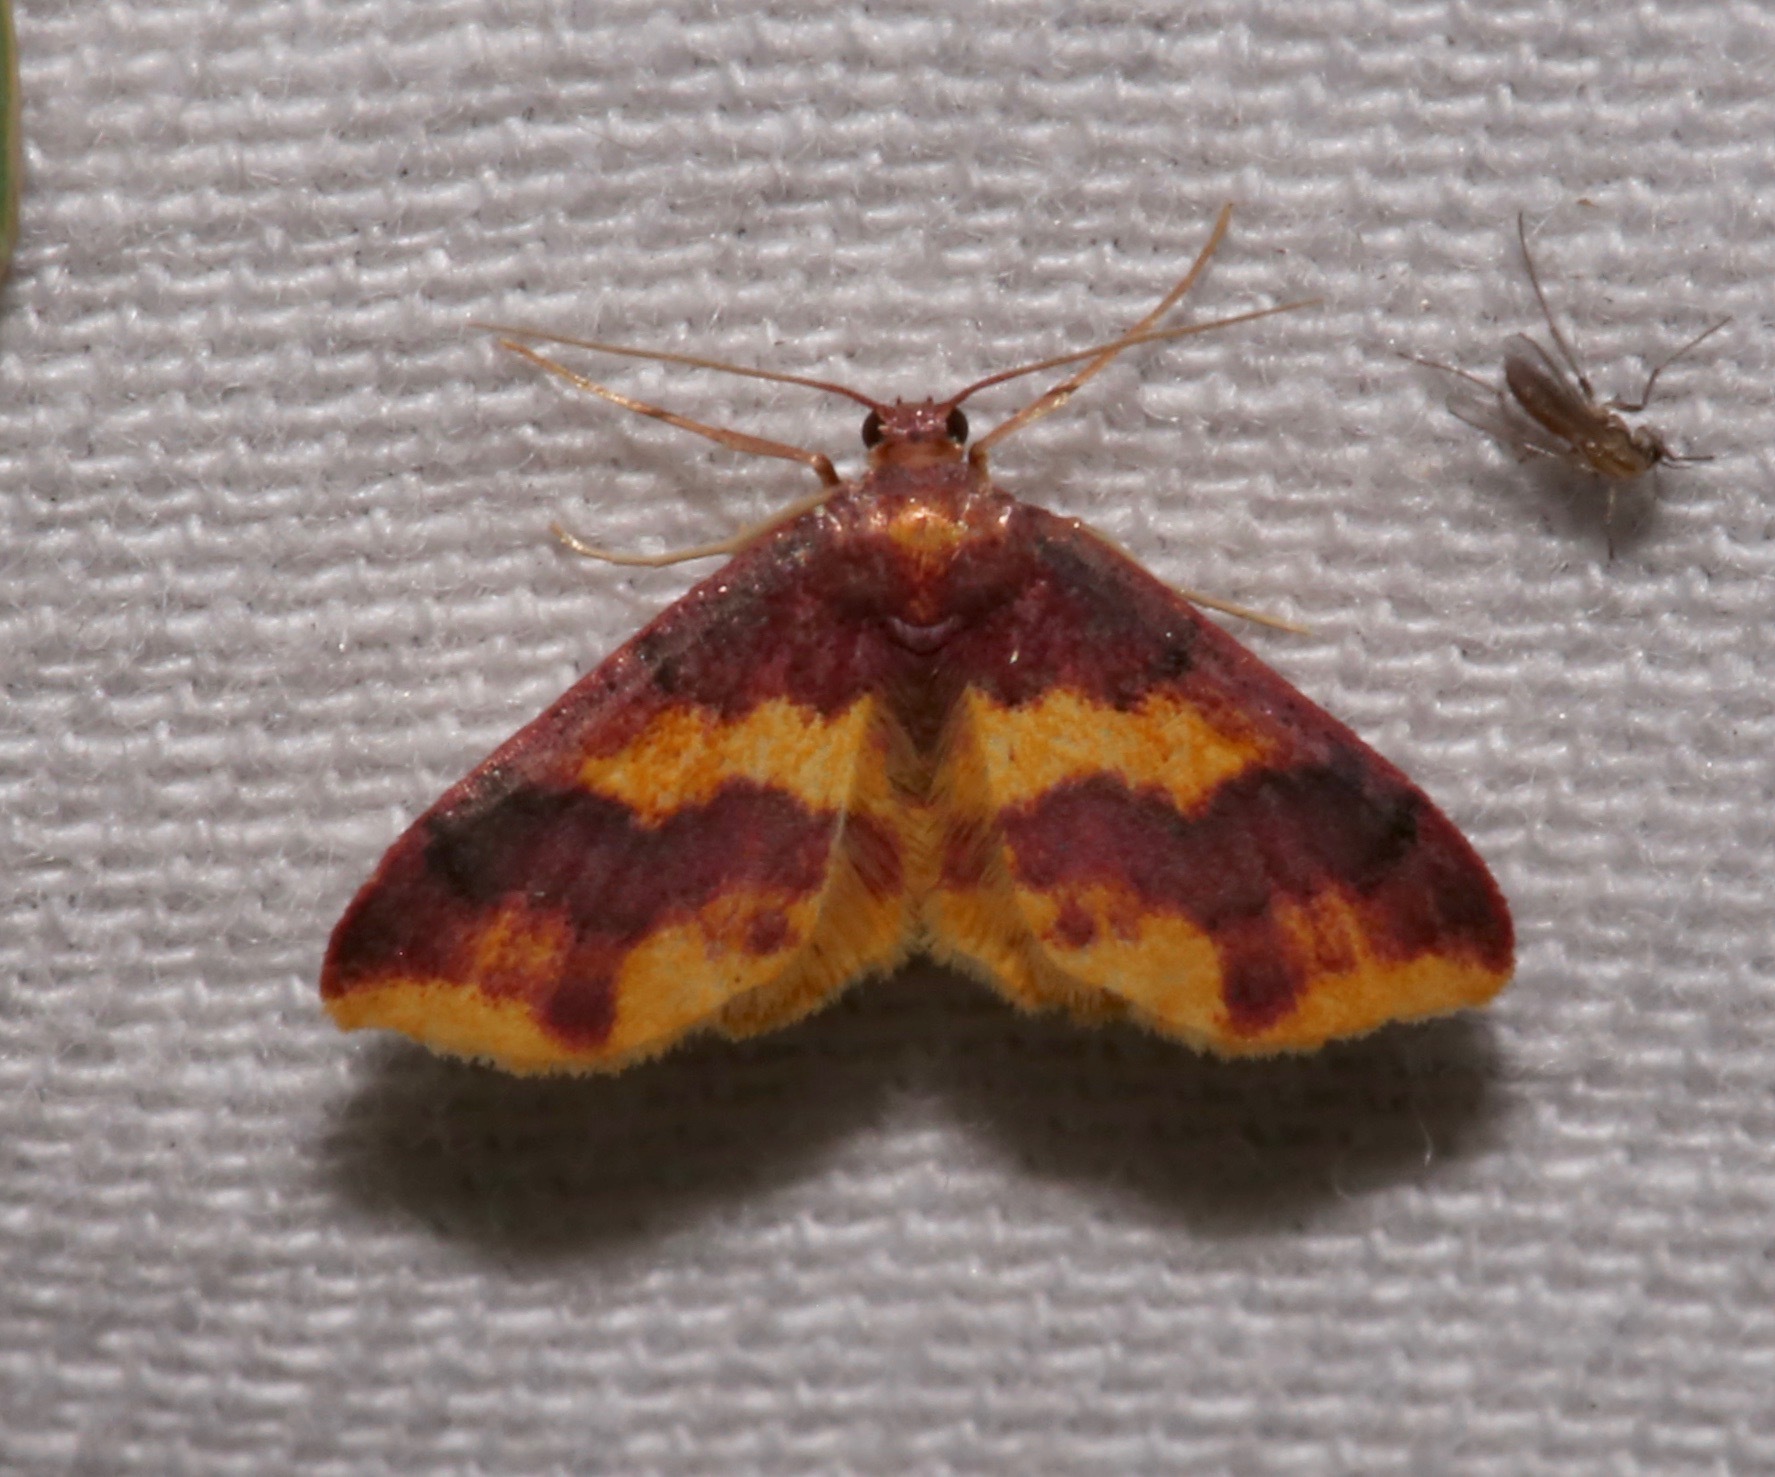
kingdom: Animalia
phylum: Arthropoda
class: Insecta
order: Lepidoptera
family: Geometridae
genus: Lophosis
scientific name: Lophosis labeculata
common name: Stained lophosis moth
